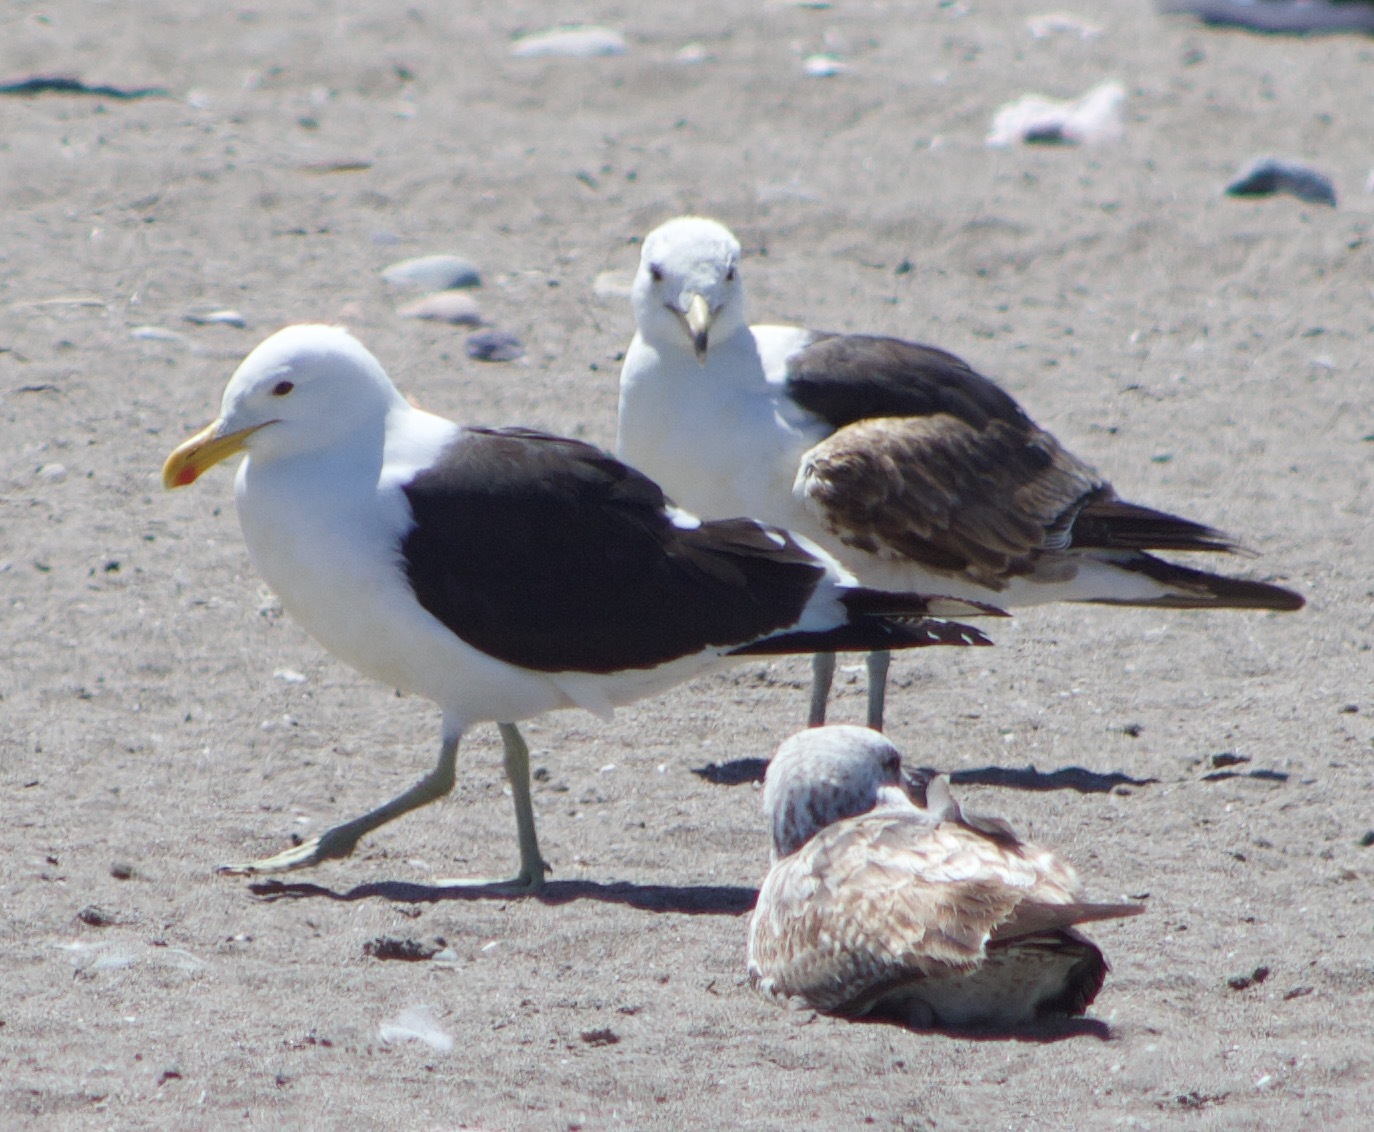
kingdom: Animalia
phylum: Chordata
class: Aves
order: Charadriiformes
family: Laridae
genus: Larus
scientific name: Larus dominicanus
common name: Kelp gull
